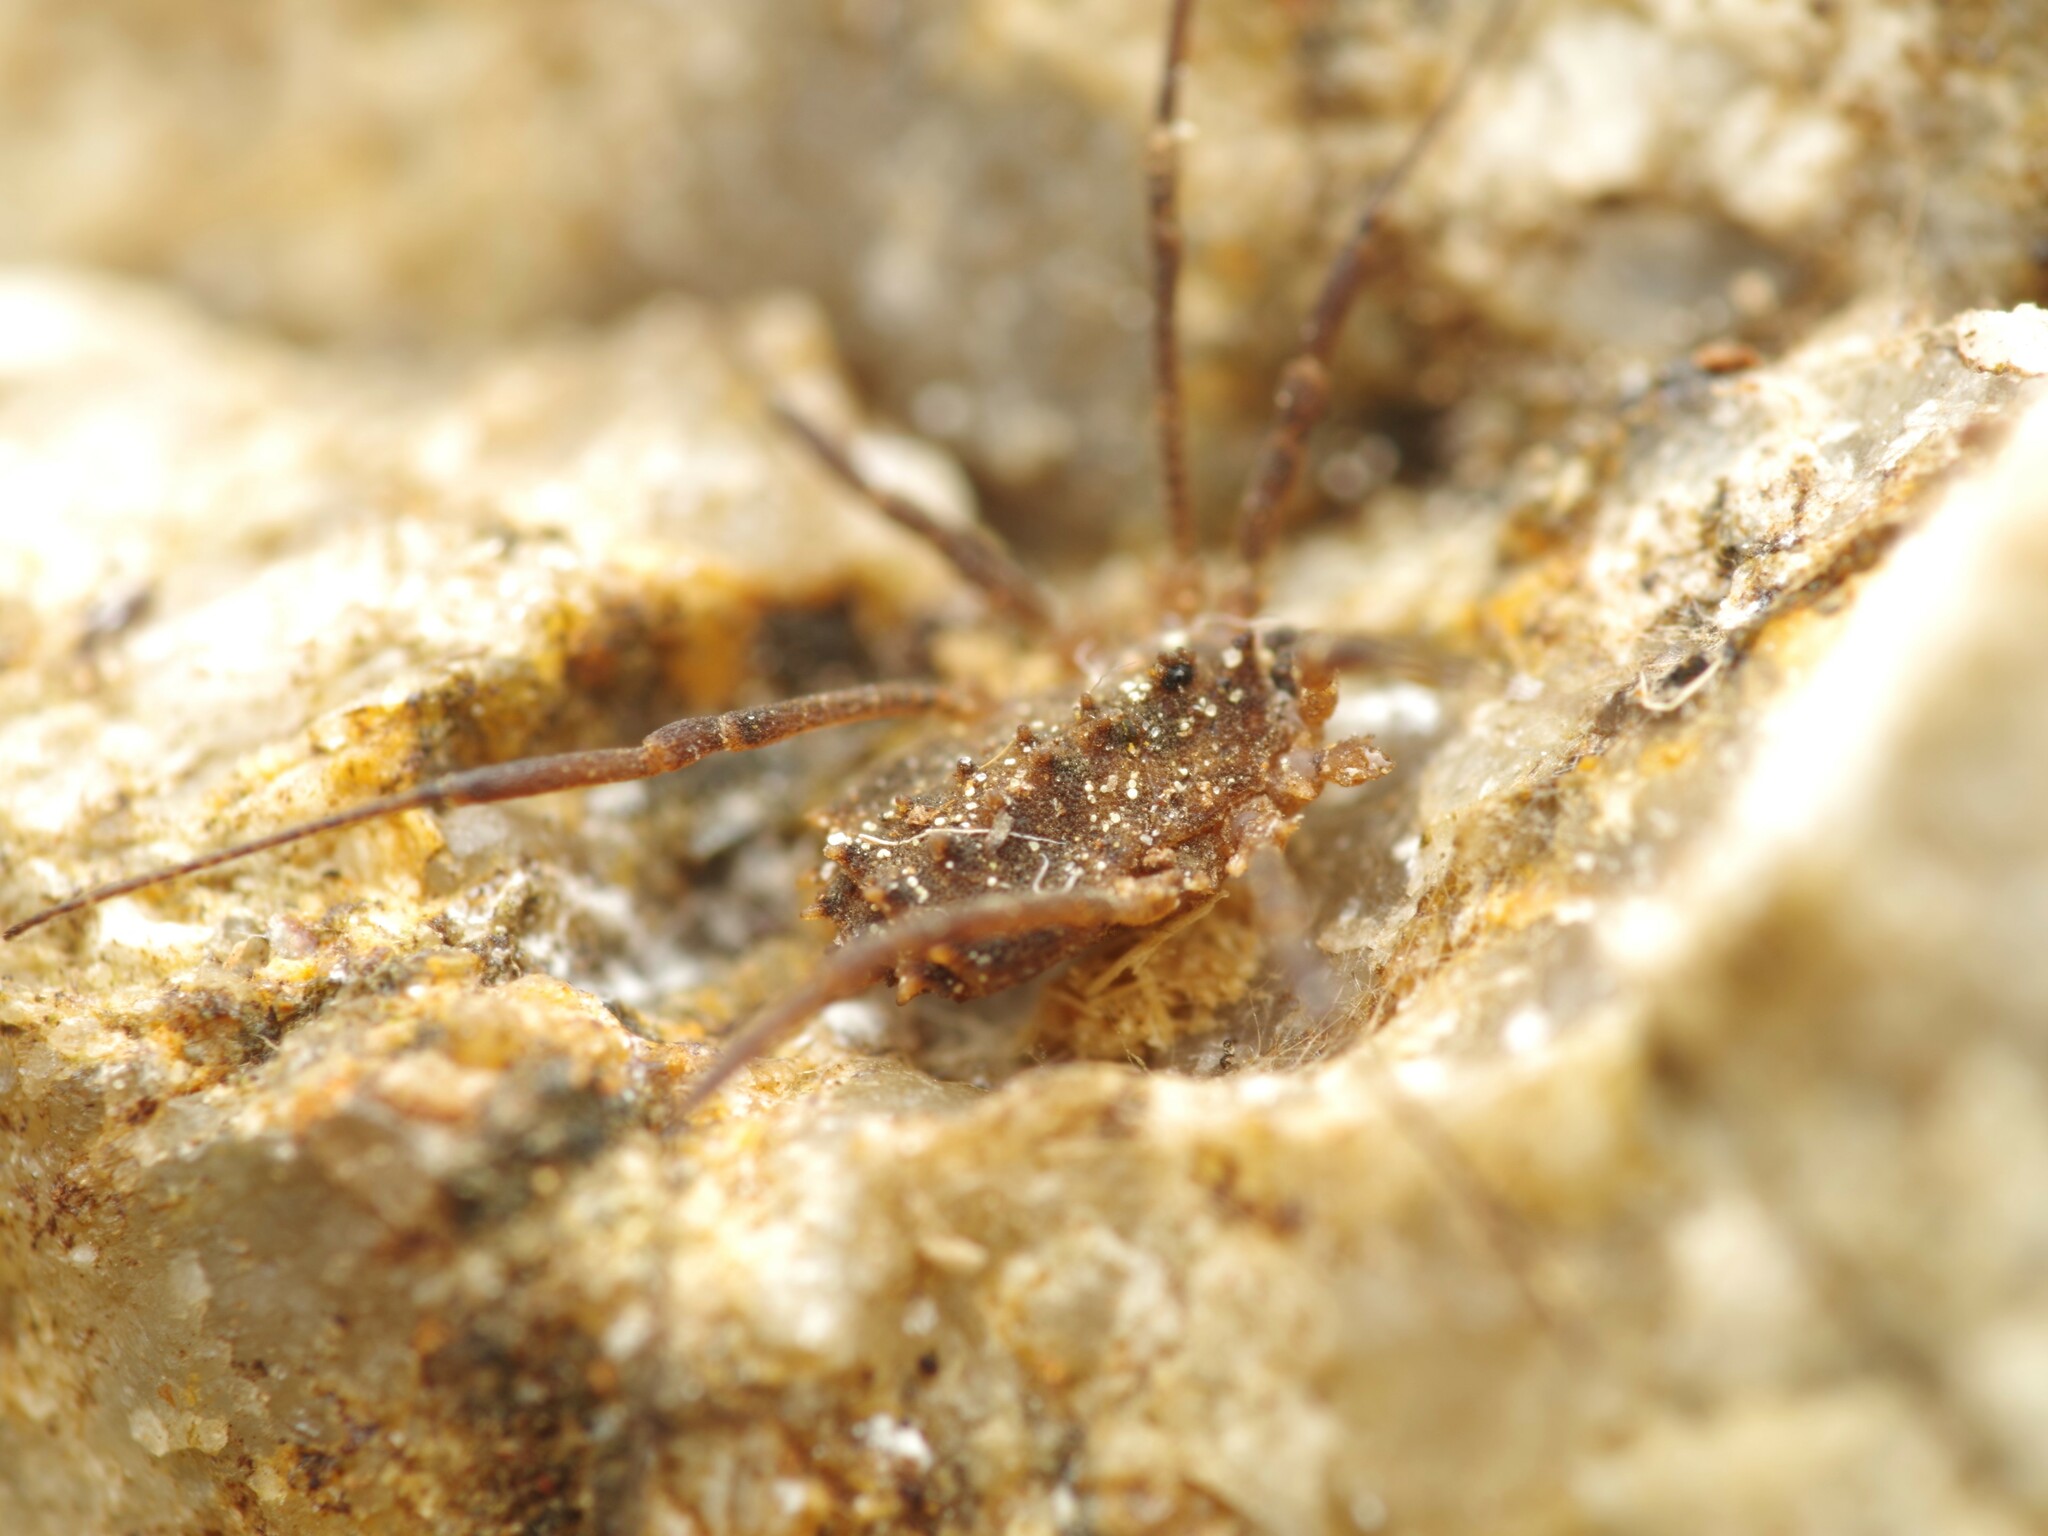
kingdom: Animalia
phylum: Arthropoda
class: Arachnida
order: Opiliones
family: Sclerosomatidae
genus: Homalenotus
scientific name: Homalenotus remyi
